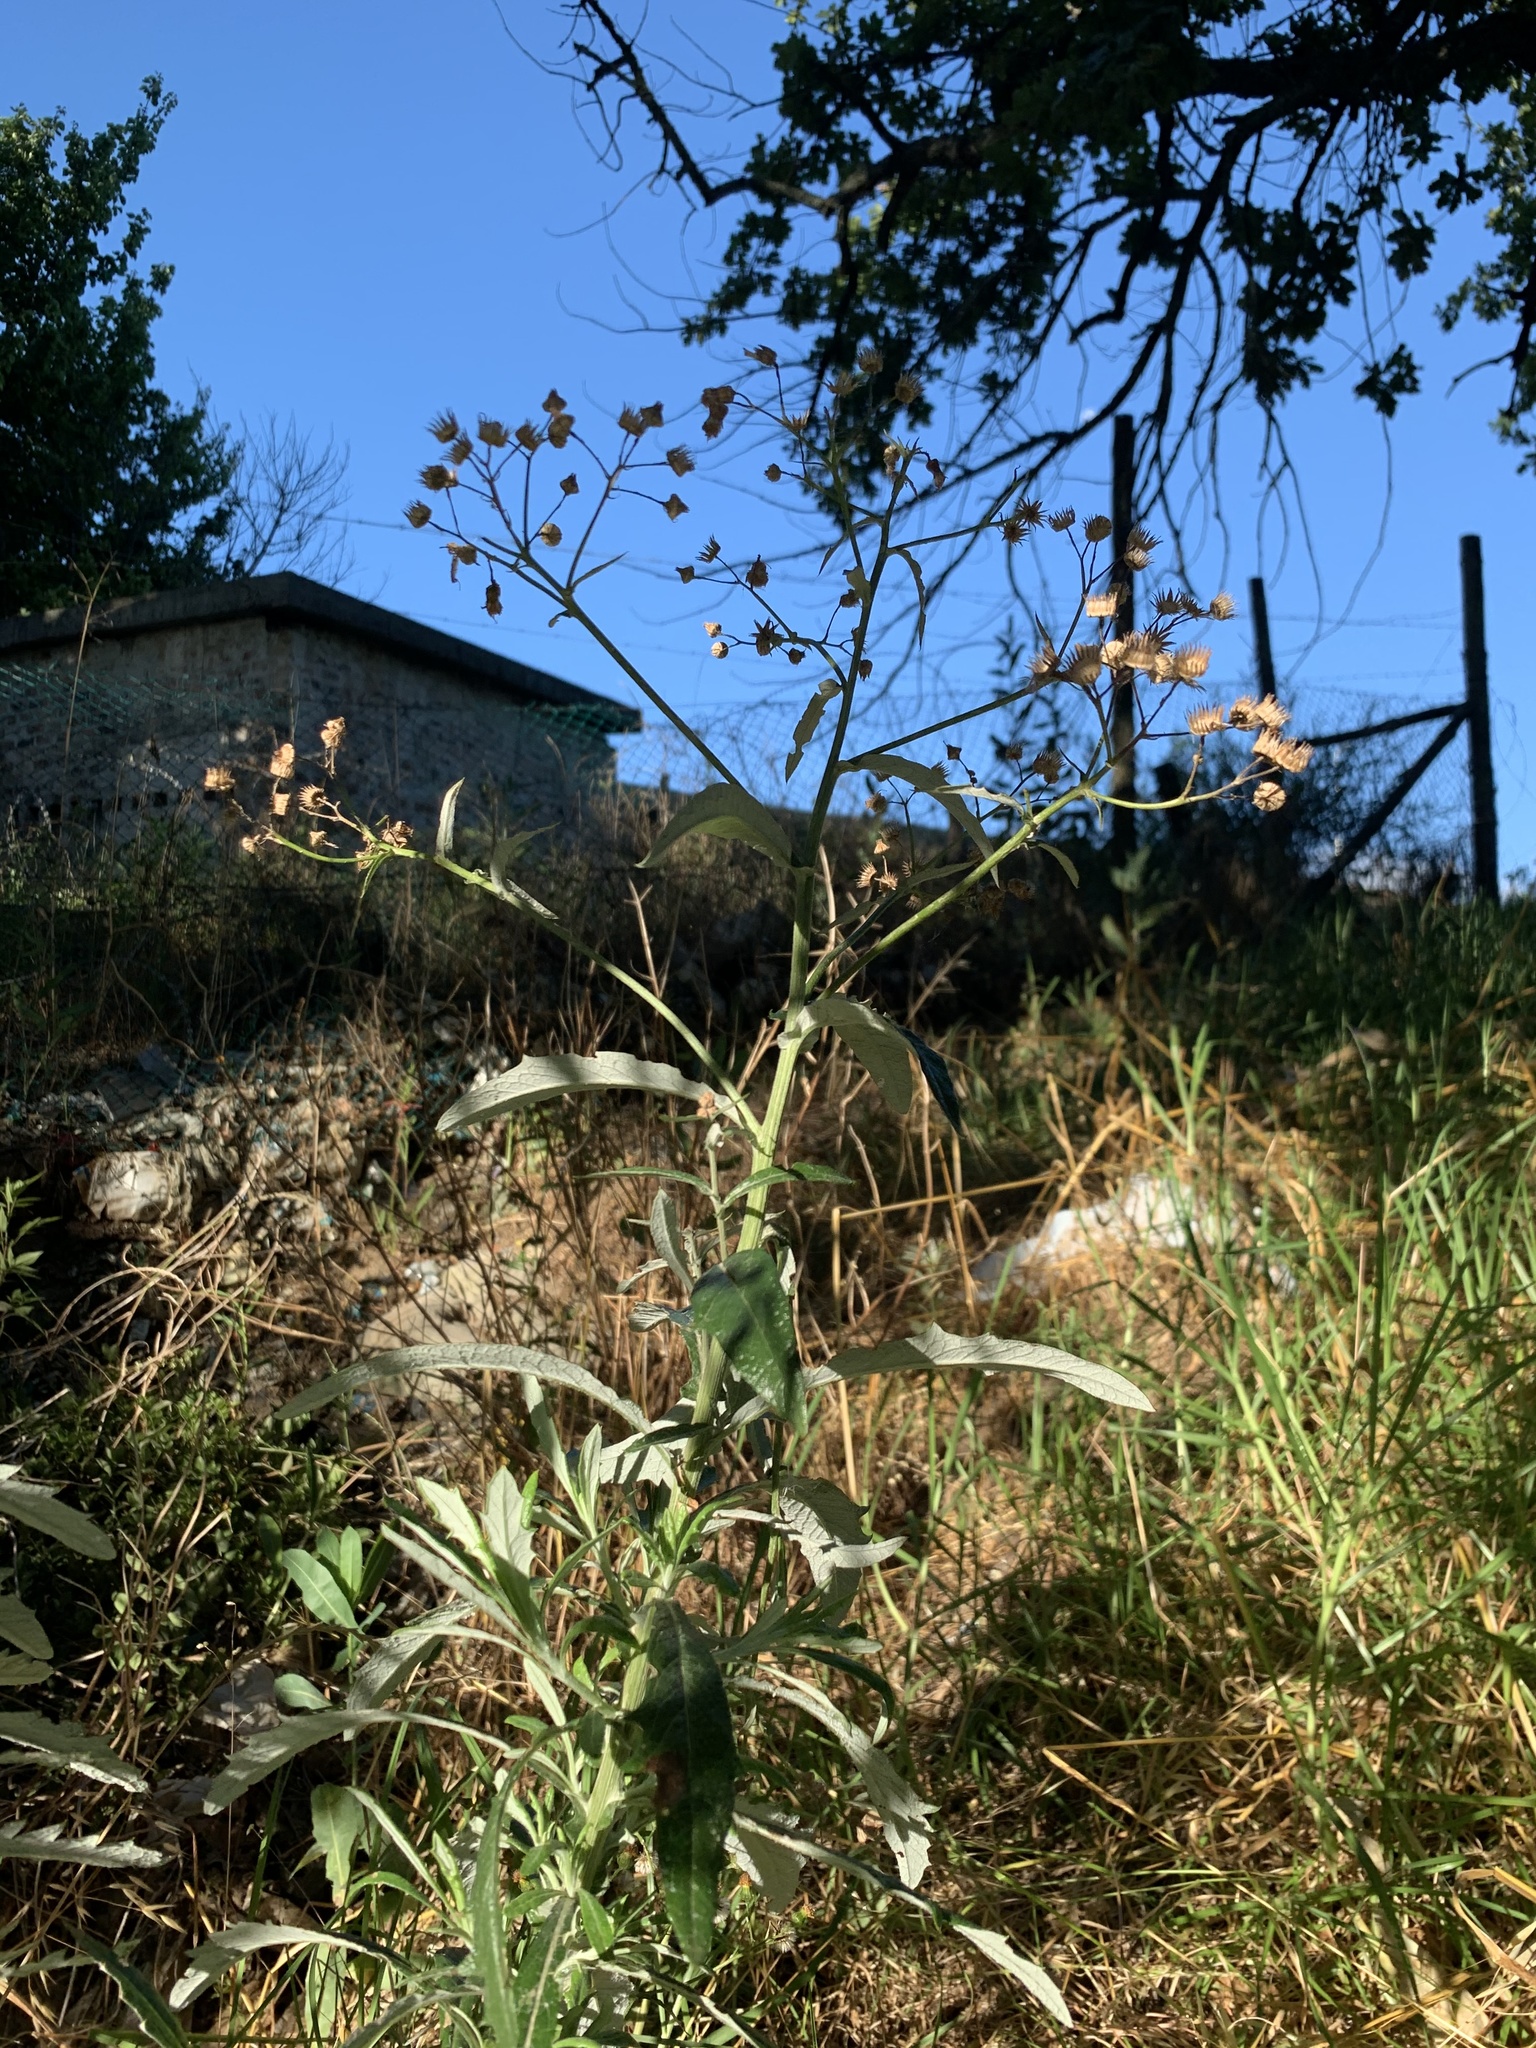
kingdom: Plantae
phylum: Tracheophyta
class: Magnoliopsida
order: Asterales
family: Asteraceae
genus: Senecio
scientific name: Senecio pterophorus
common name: Shoddy ragwort
